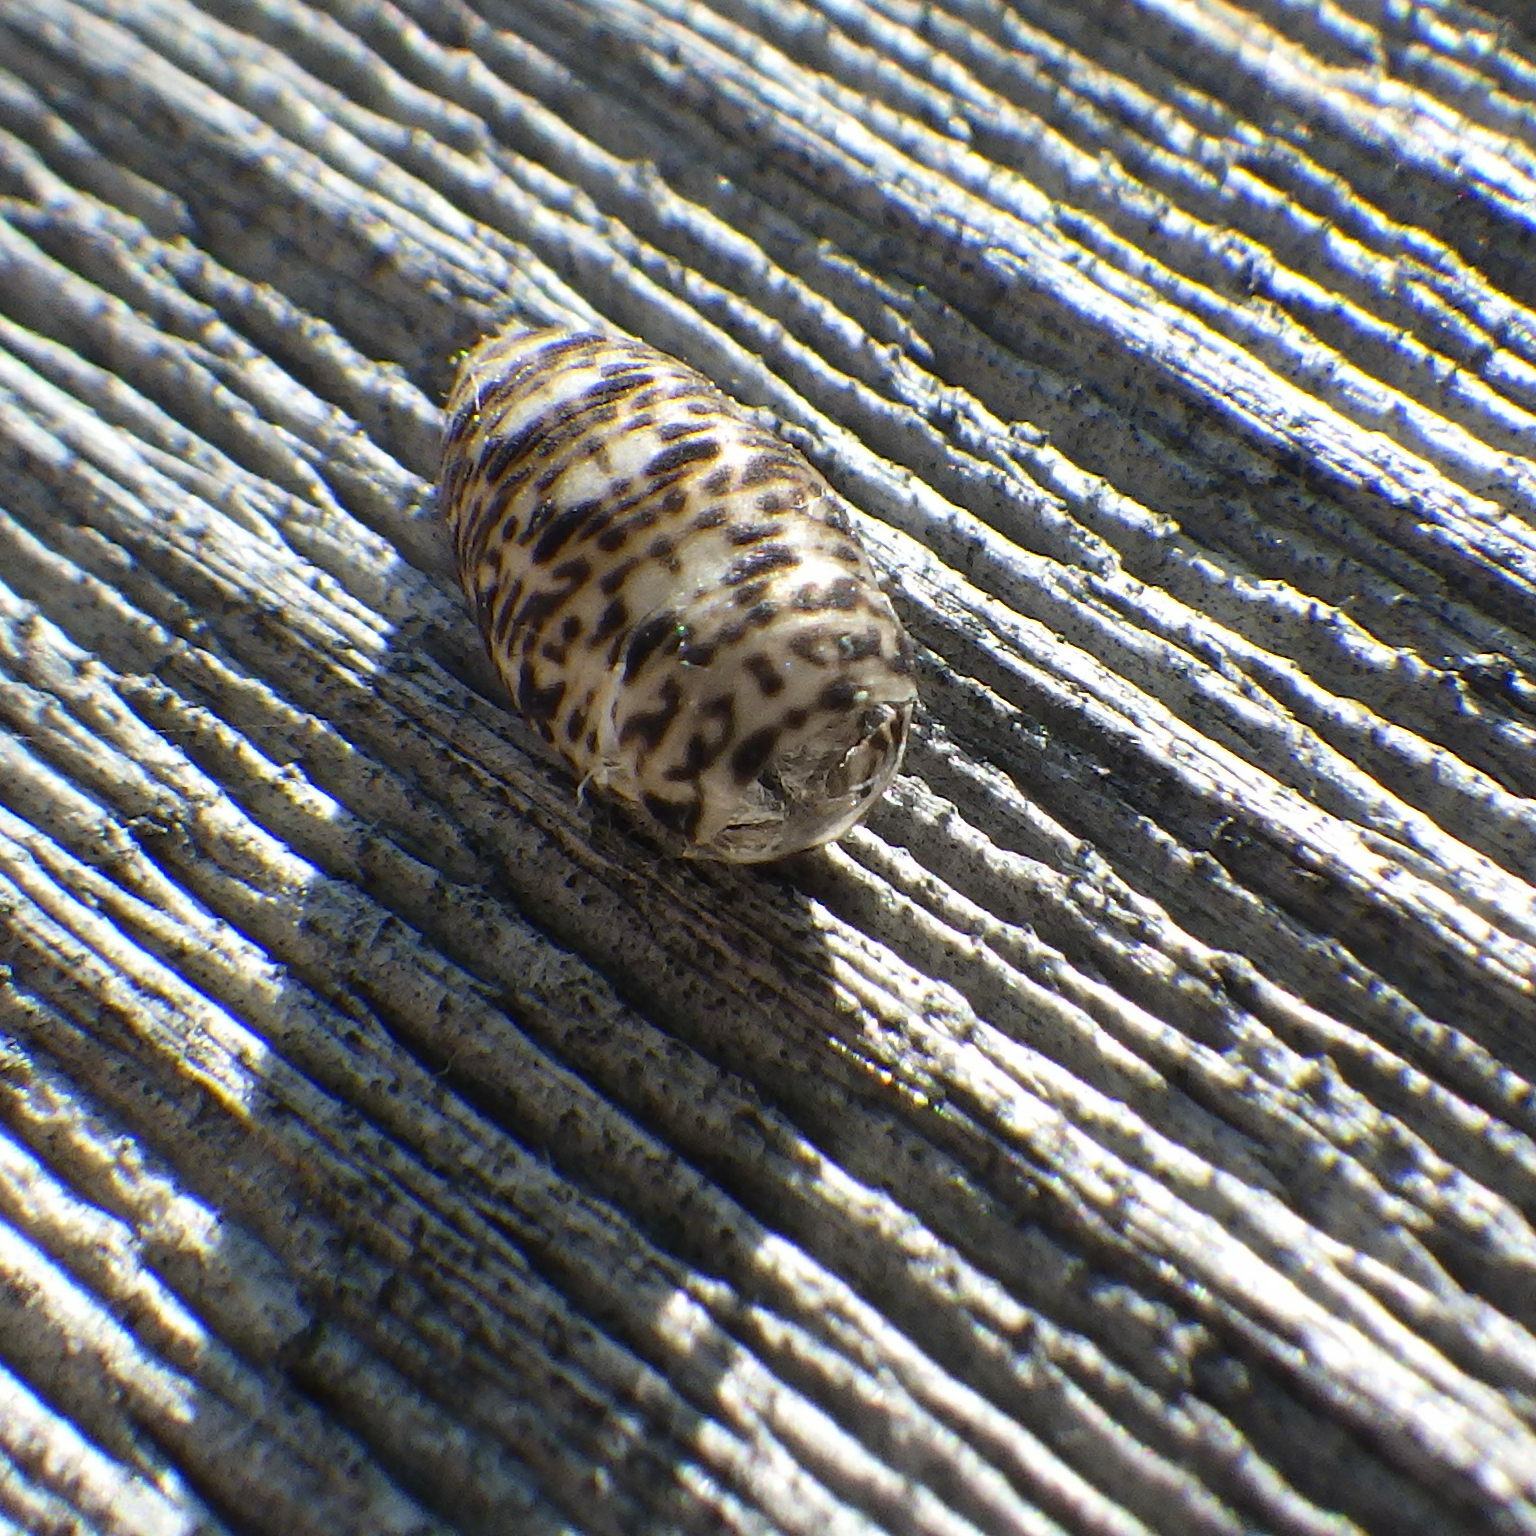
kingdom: Animalia
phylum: Arthropoda
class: Insecta
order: Diptera
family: Syrphidae
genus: Lapposyrphus
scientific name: Lapposyrphus lapponicus
